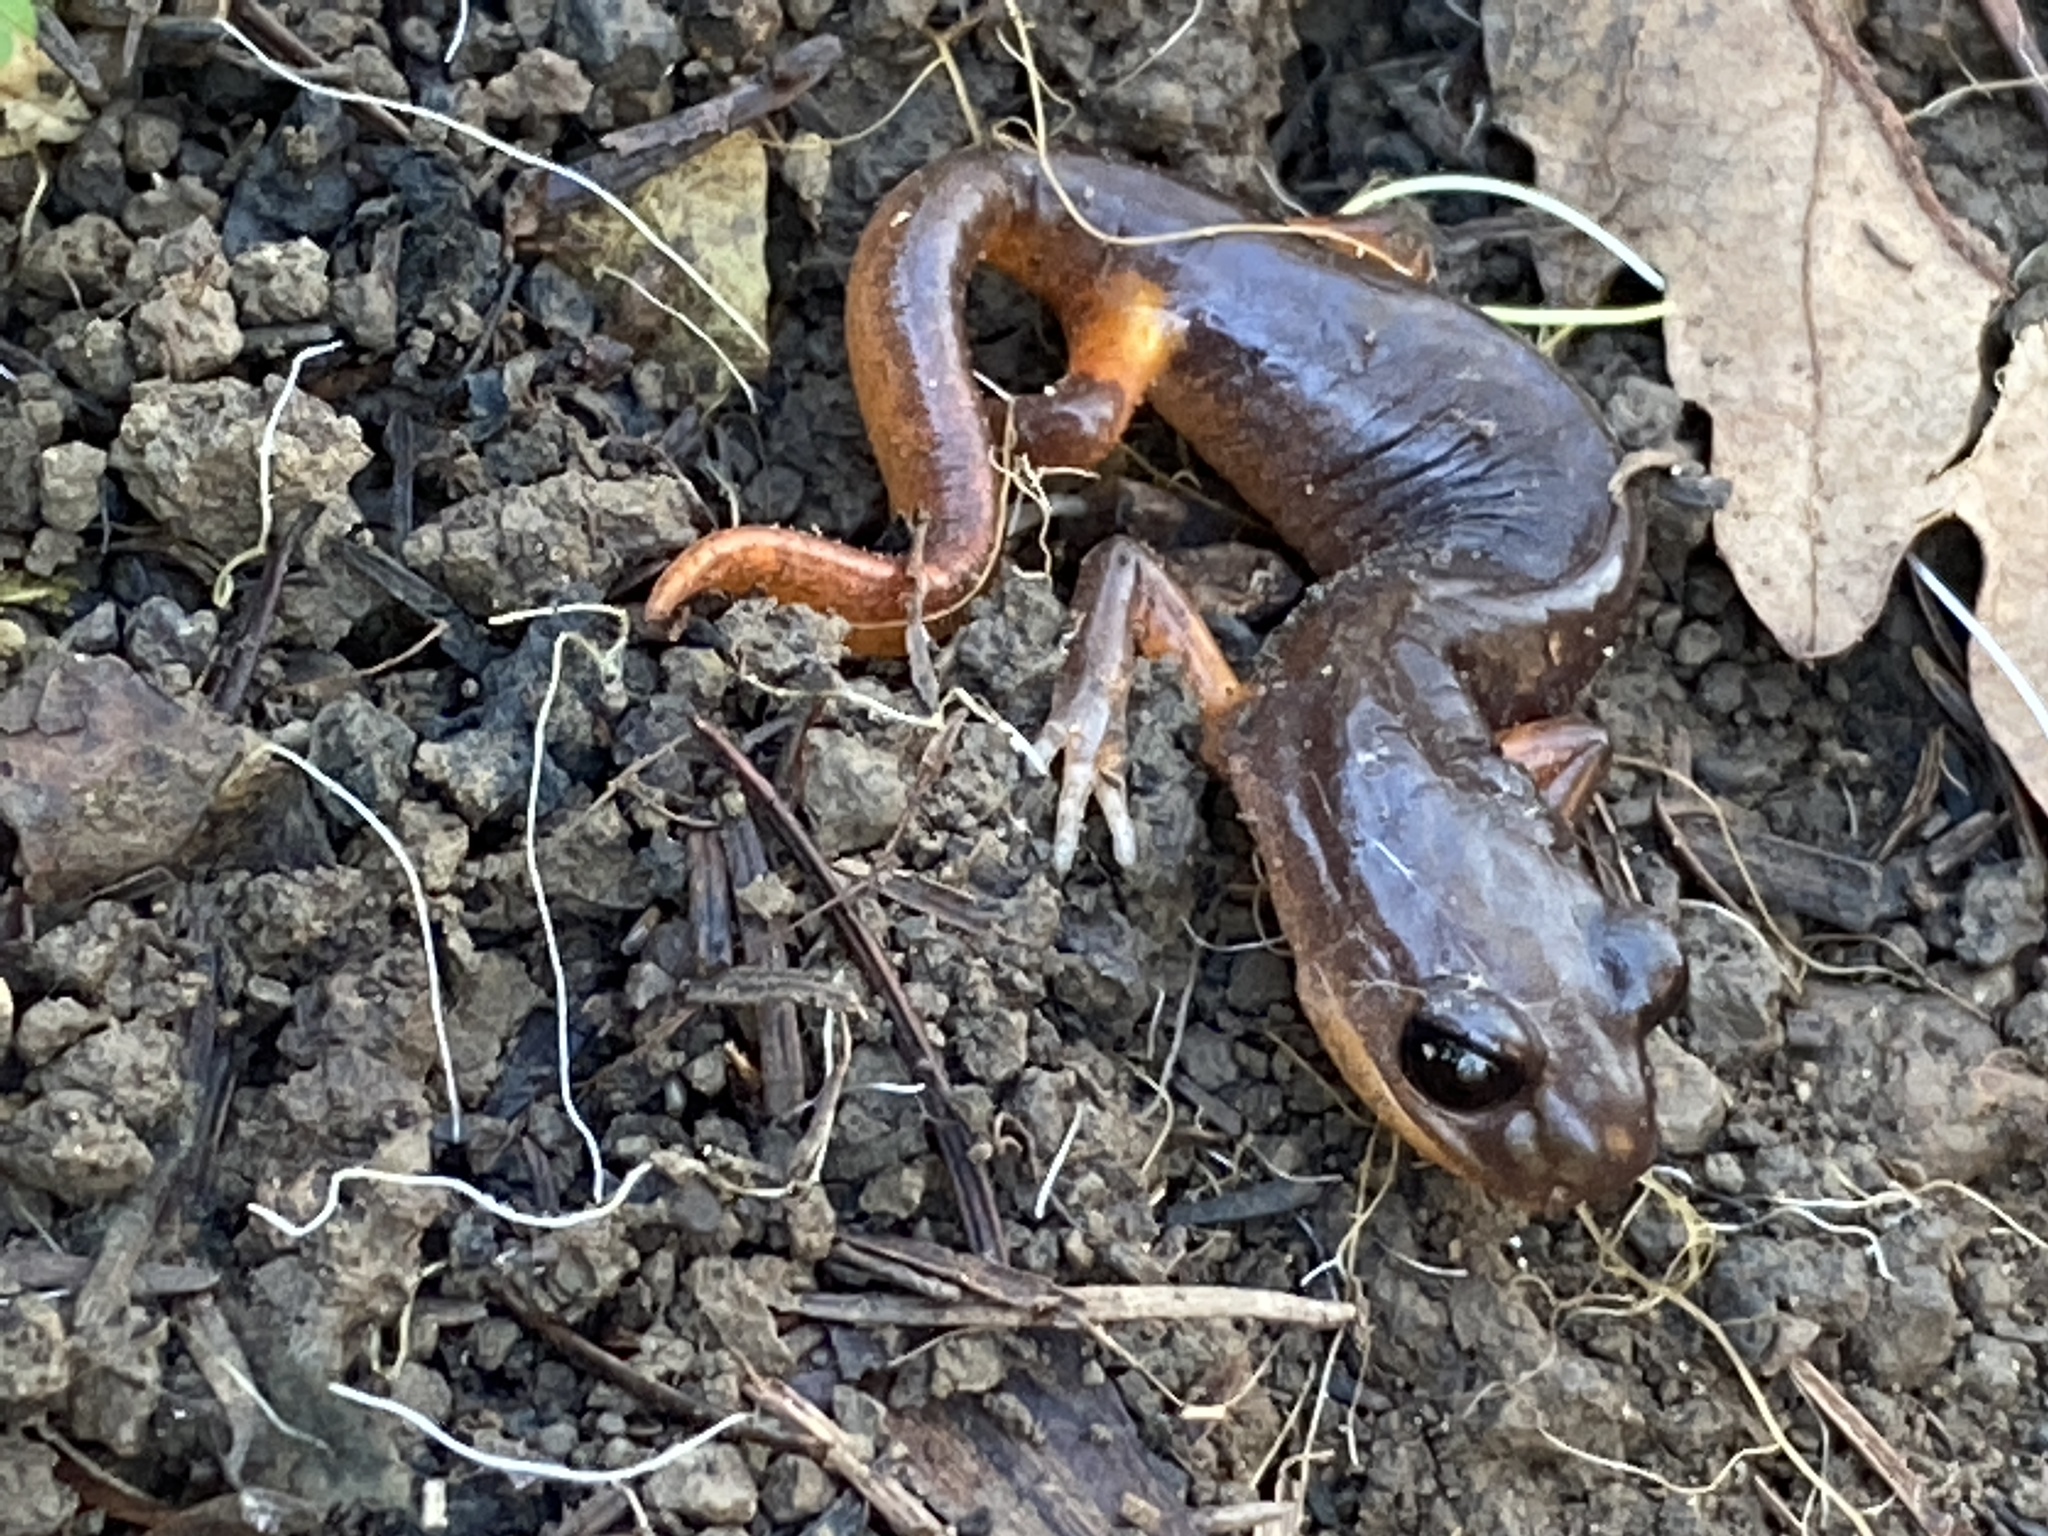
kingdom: Animalia
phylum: Chordata
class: Amphibia
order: Caudata
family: Plethodontidae
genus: Ensatina
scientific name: Ensatina eschscholtzii
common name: Ensatina
